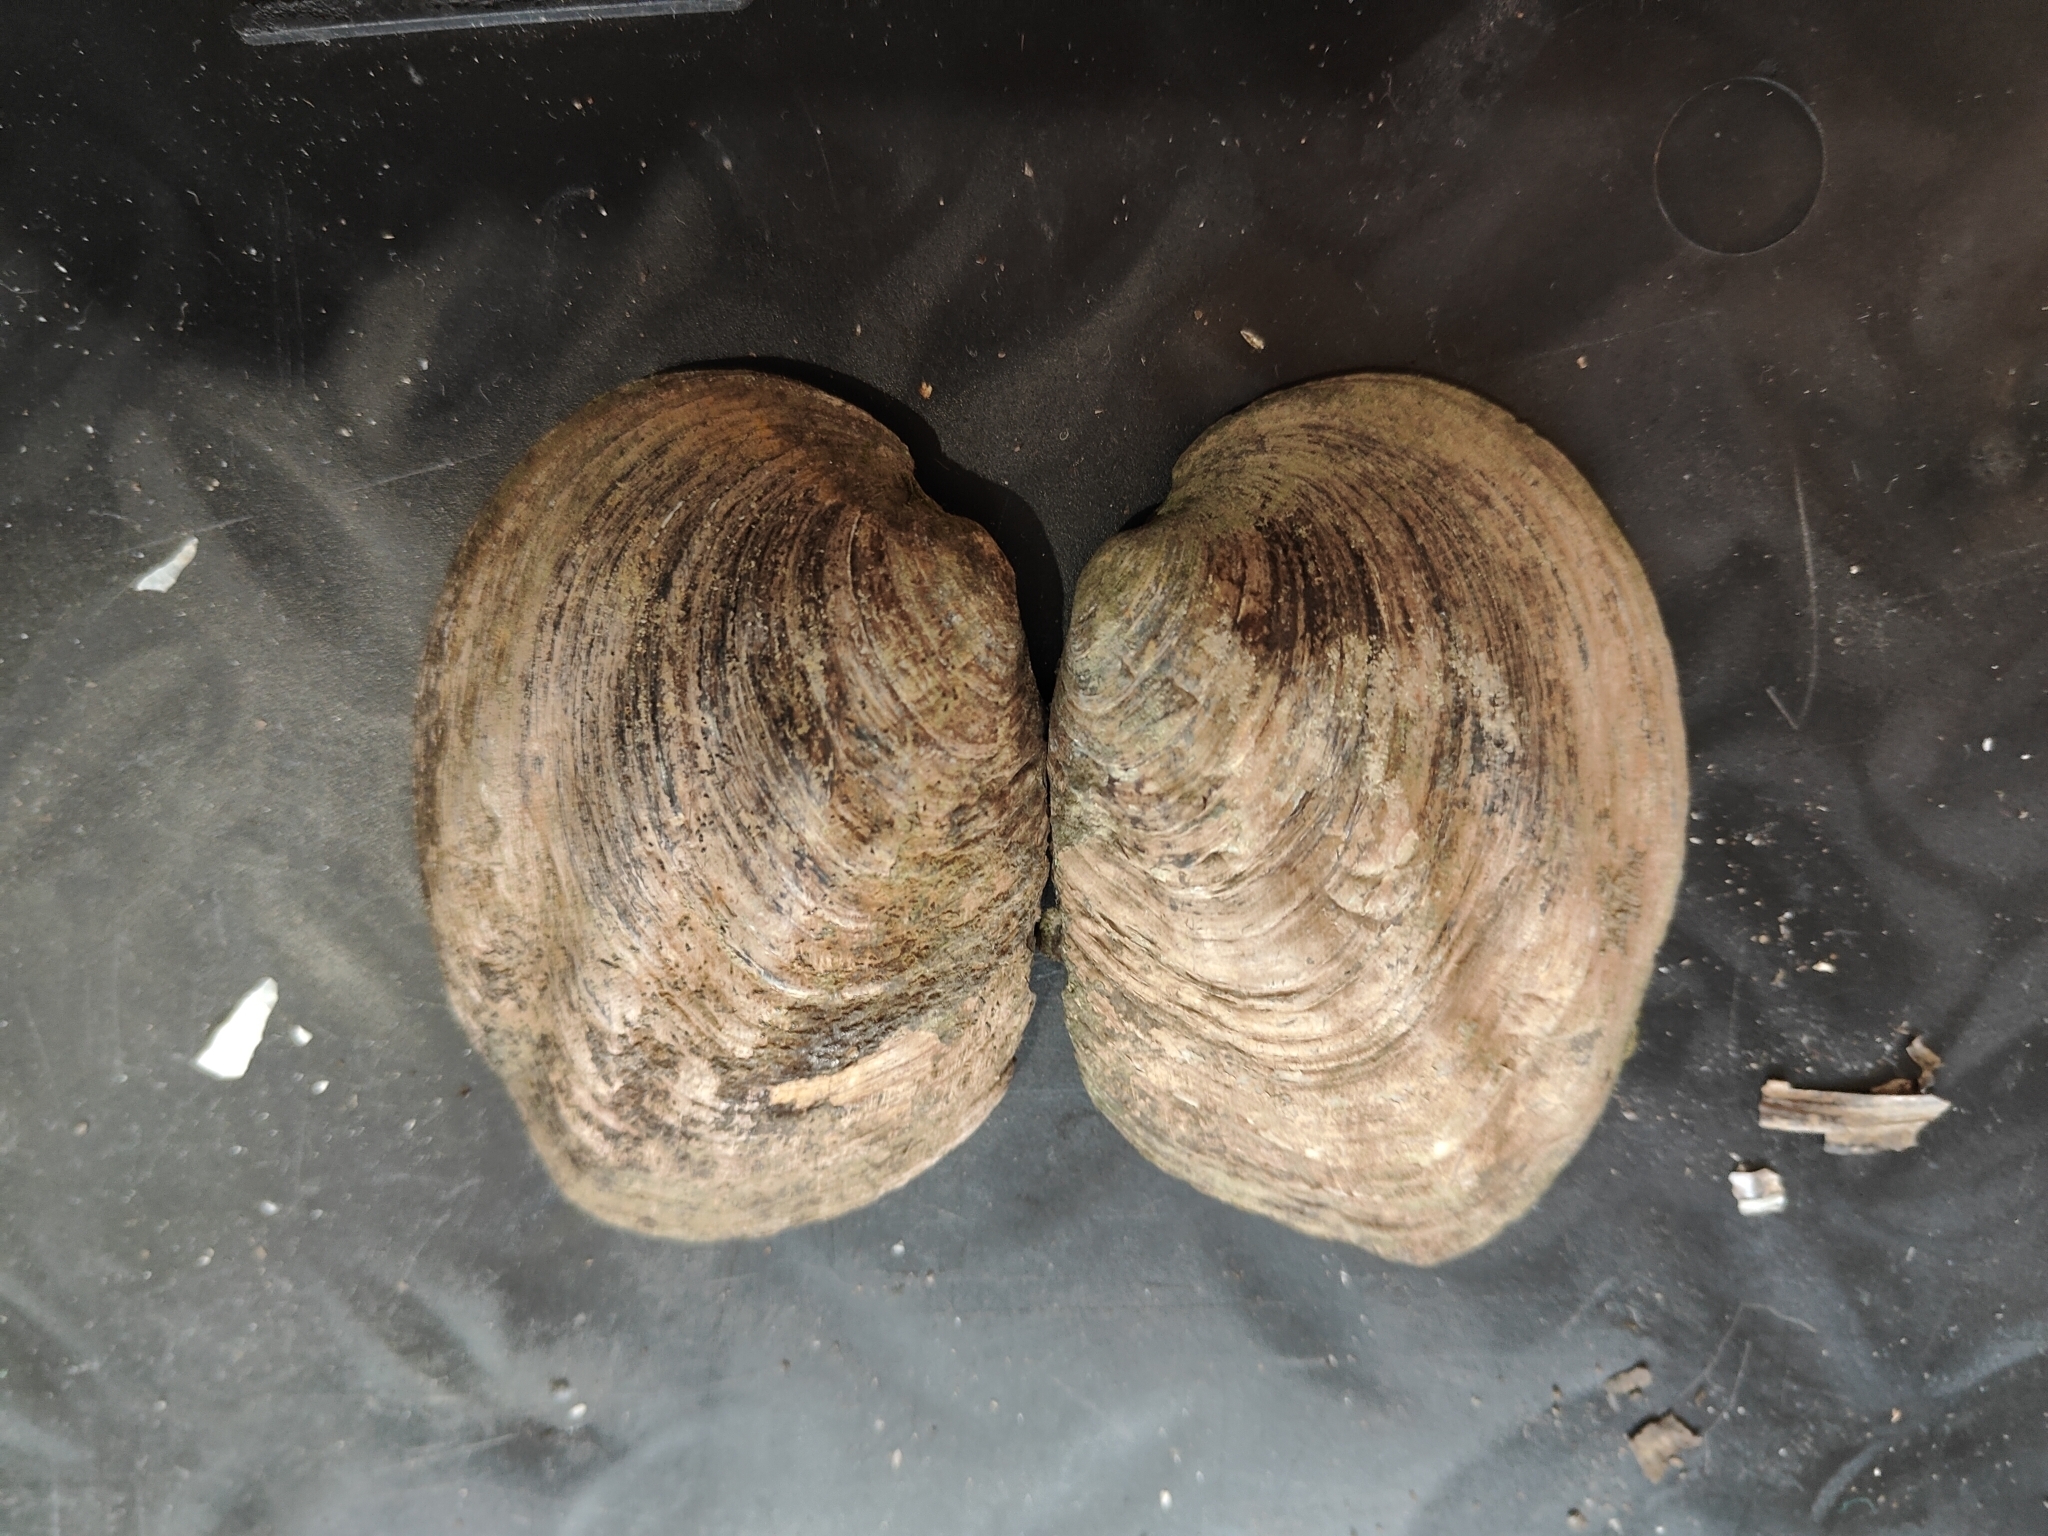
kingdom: Animalia
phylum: Mollusca
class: Bivalvia
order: Unionida
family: Unionidae
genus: Amblema
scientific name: Amblema plicata
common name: Threeridge
